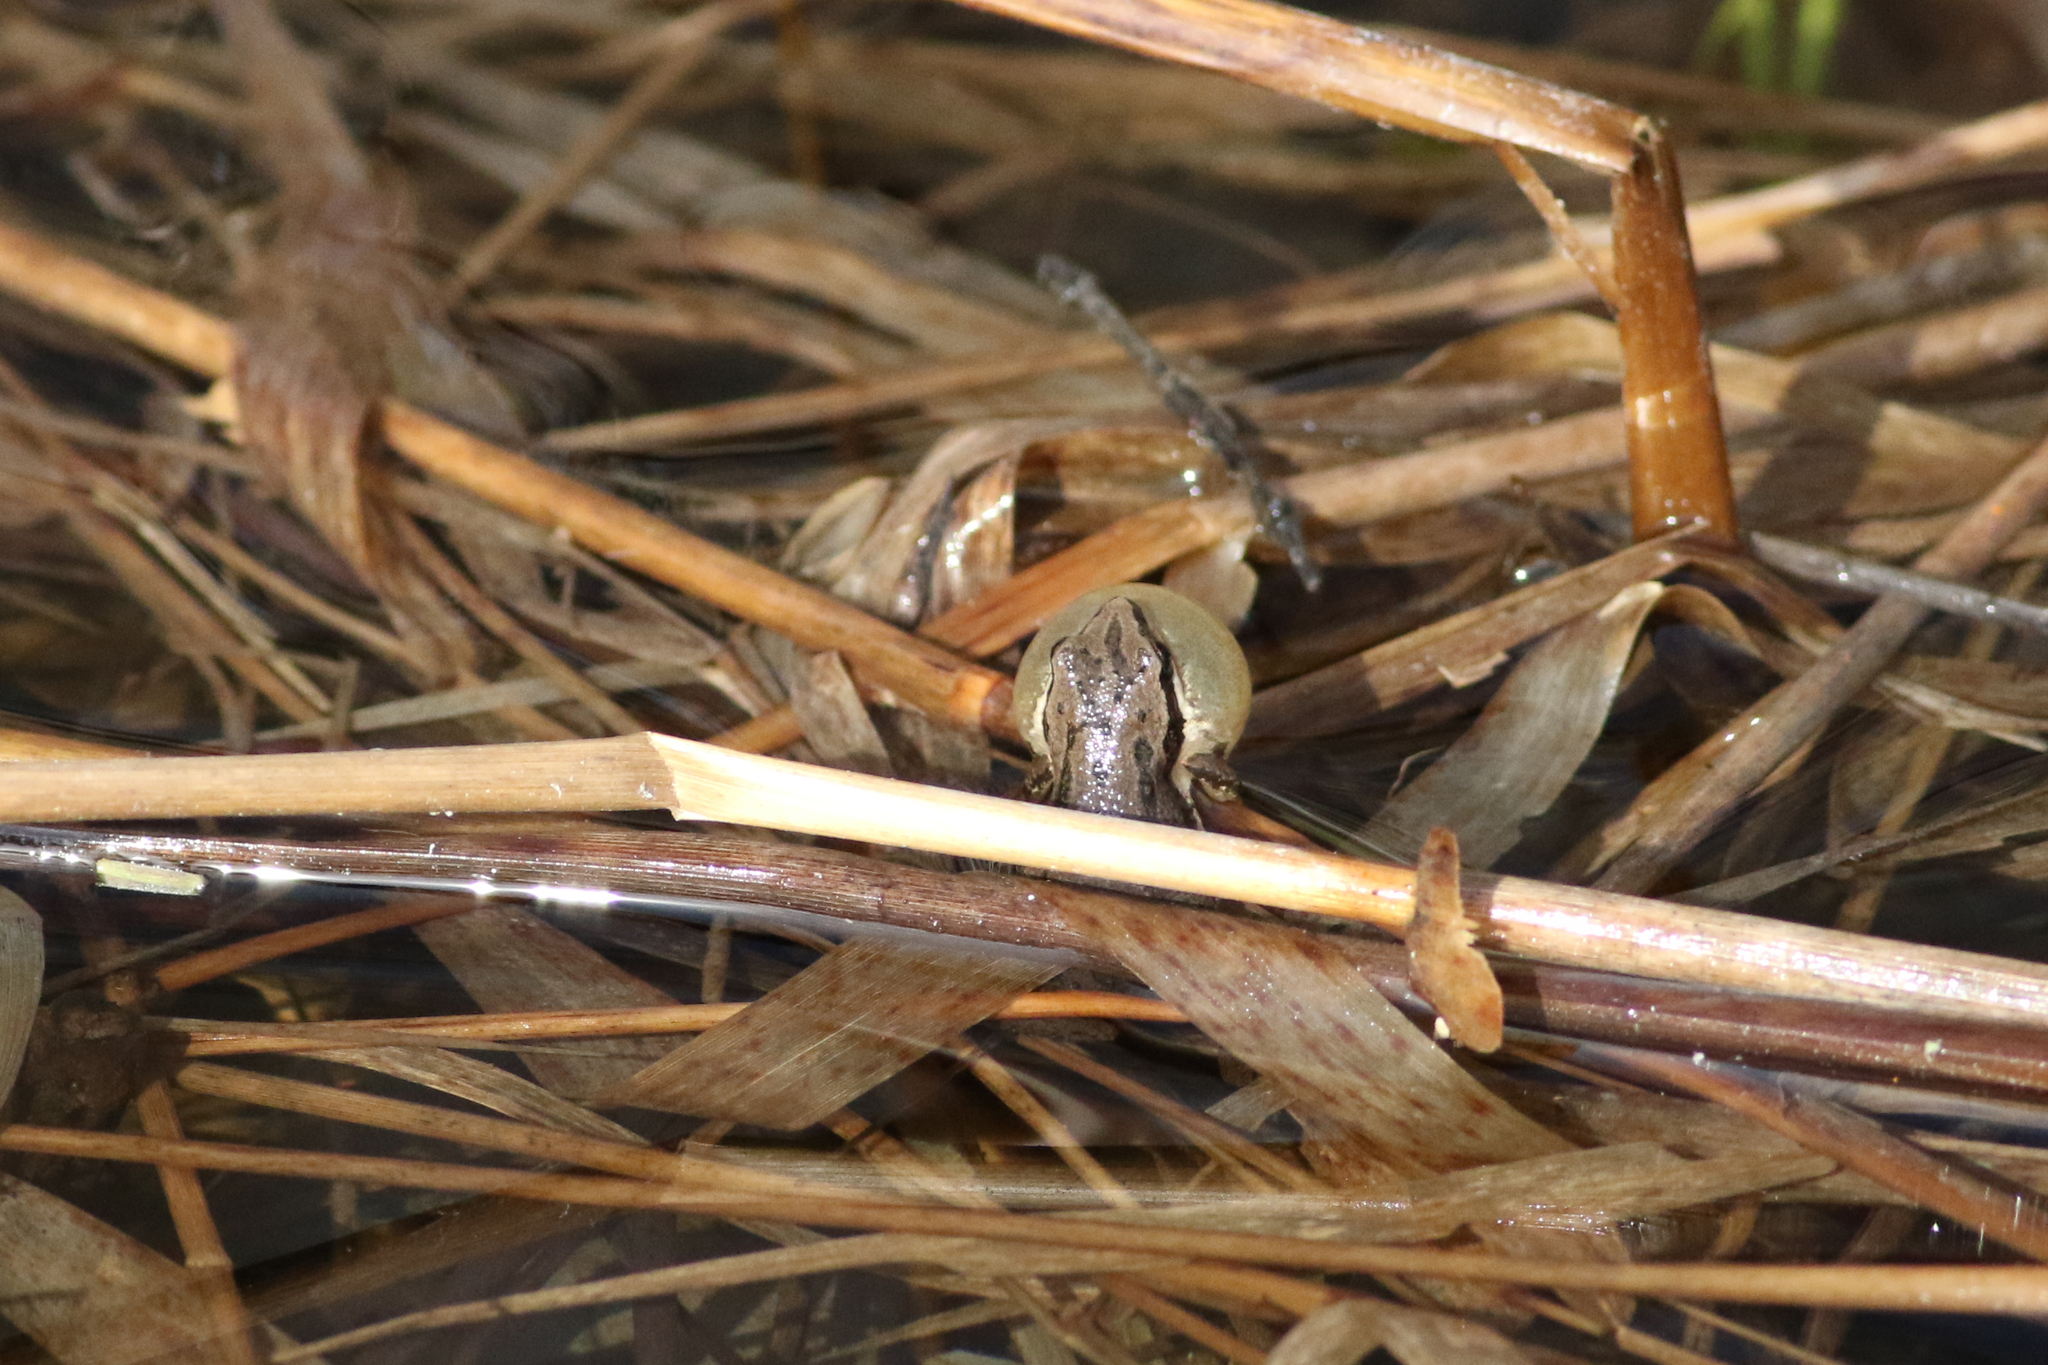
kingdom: Animalia
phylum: Chordata
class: Amphibia
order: Anura
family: Hylidae
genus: Pseudacris
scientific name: Pseudacris maculata
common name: Boreal chorus frog
